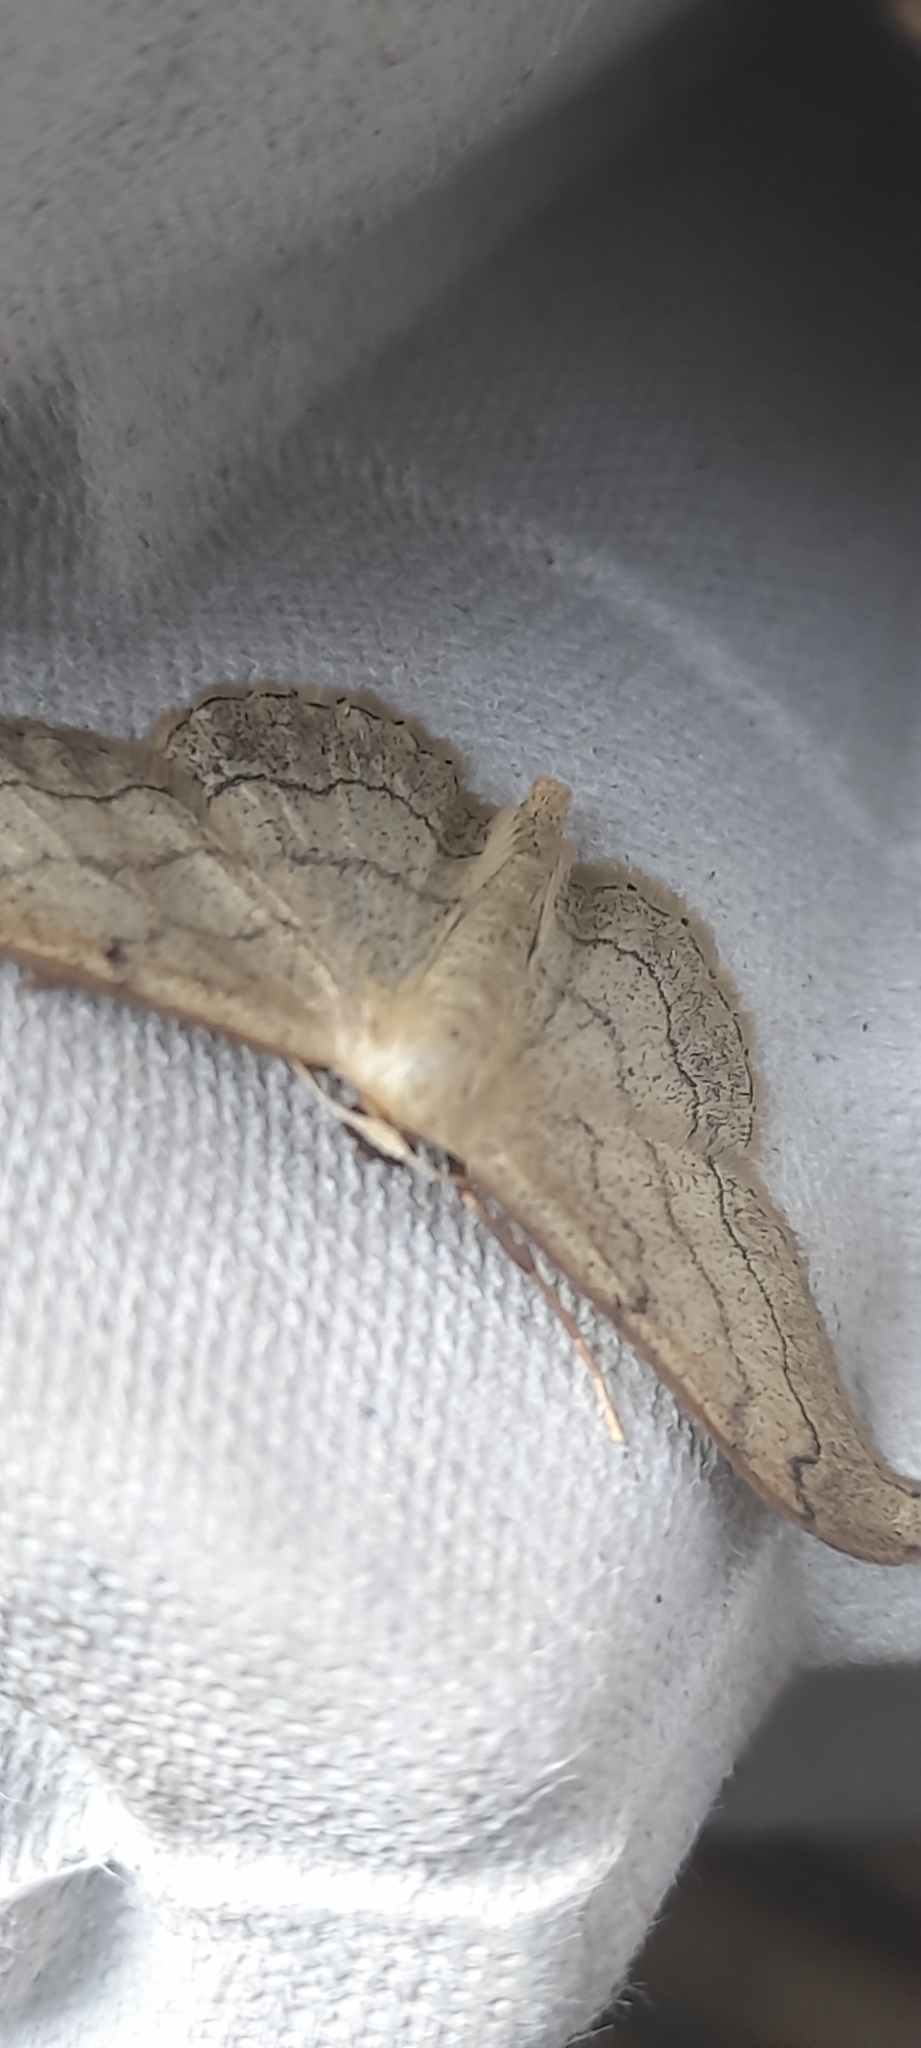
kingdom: Animalia
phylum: Arthropoda
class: Insecta
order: Lepidoptera
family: Geometridae
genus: Idaea
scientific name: Idaea aversata
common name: Riband wave
